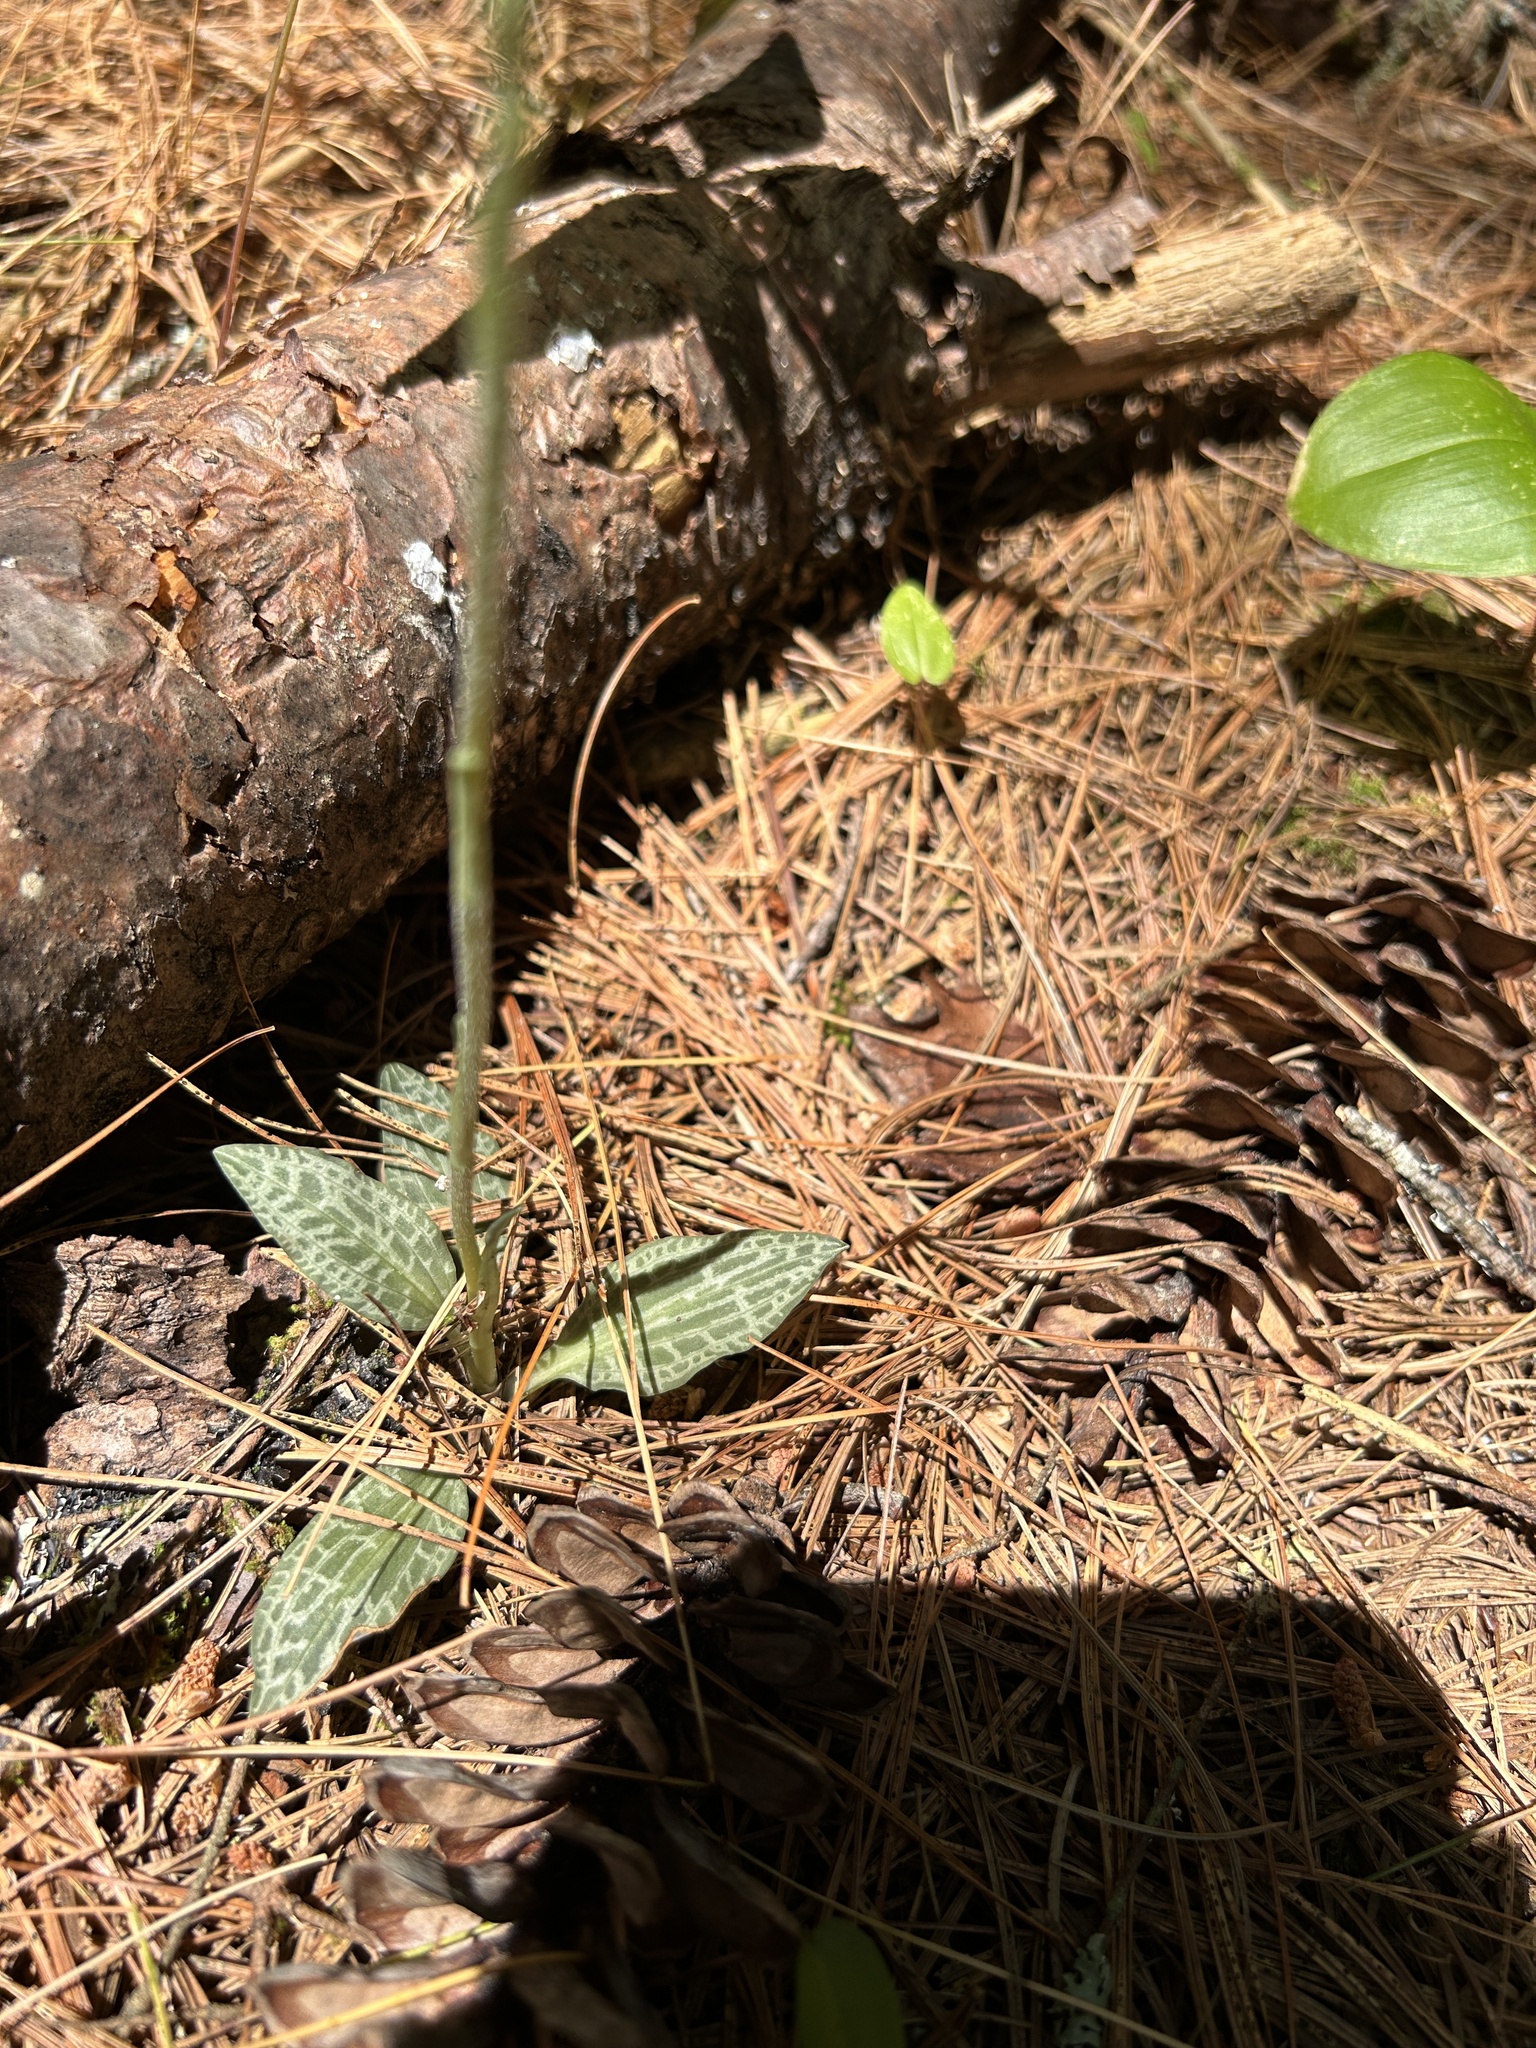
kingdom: Plantae
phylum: Tracheophyta
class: Liliopsida
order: Asparagales
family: Orchidaceae
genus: Goodyera
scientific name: Goodyera tesselata
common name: Checkered rattlesnake-plantain
